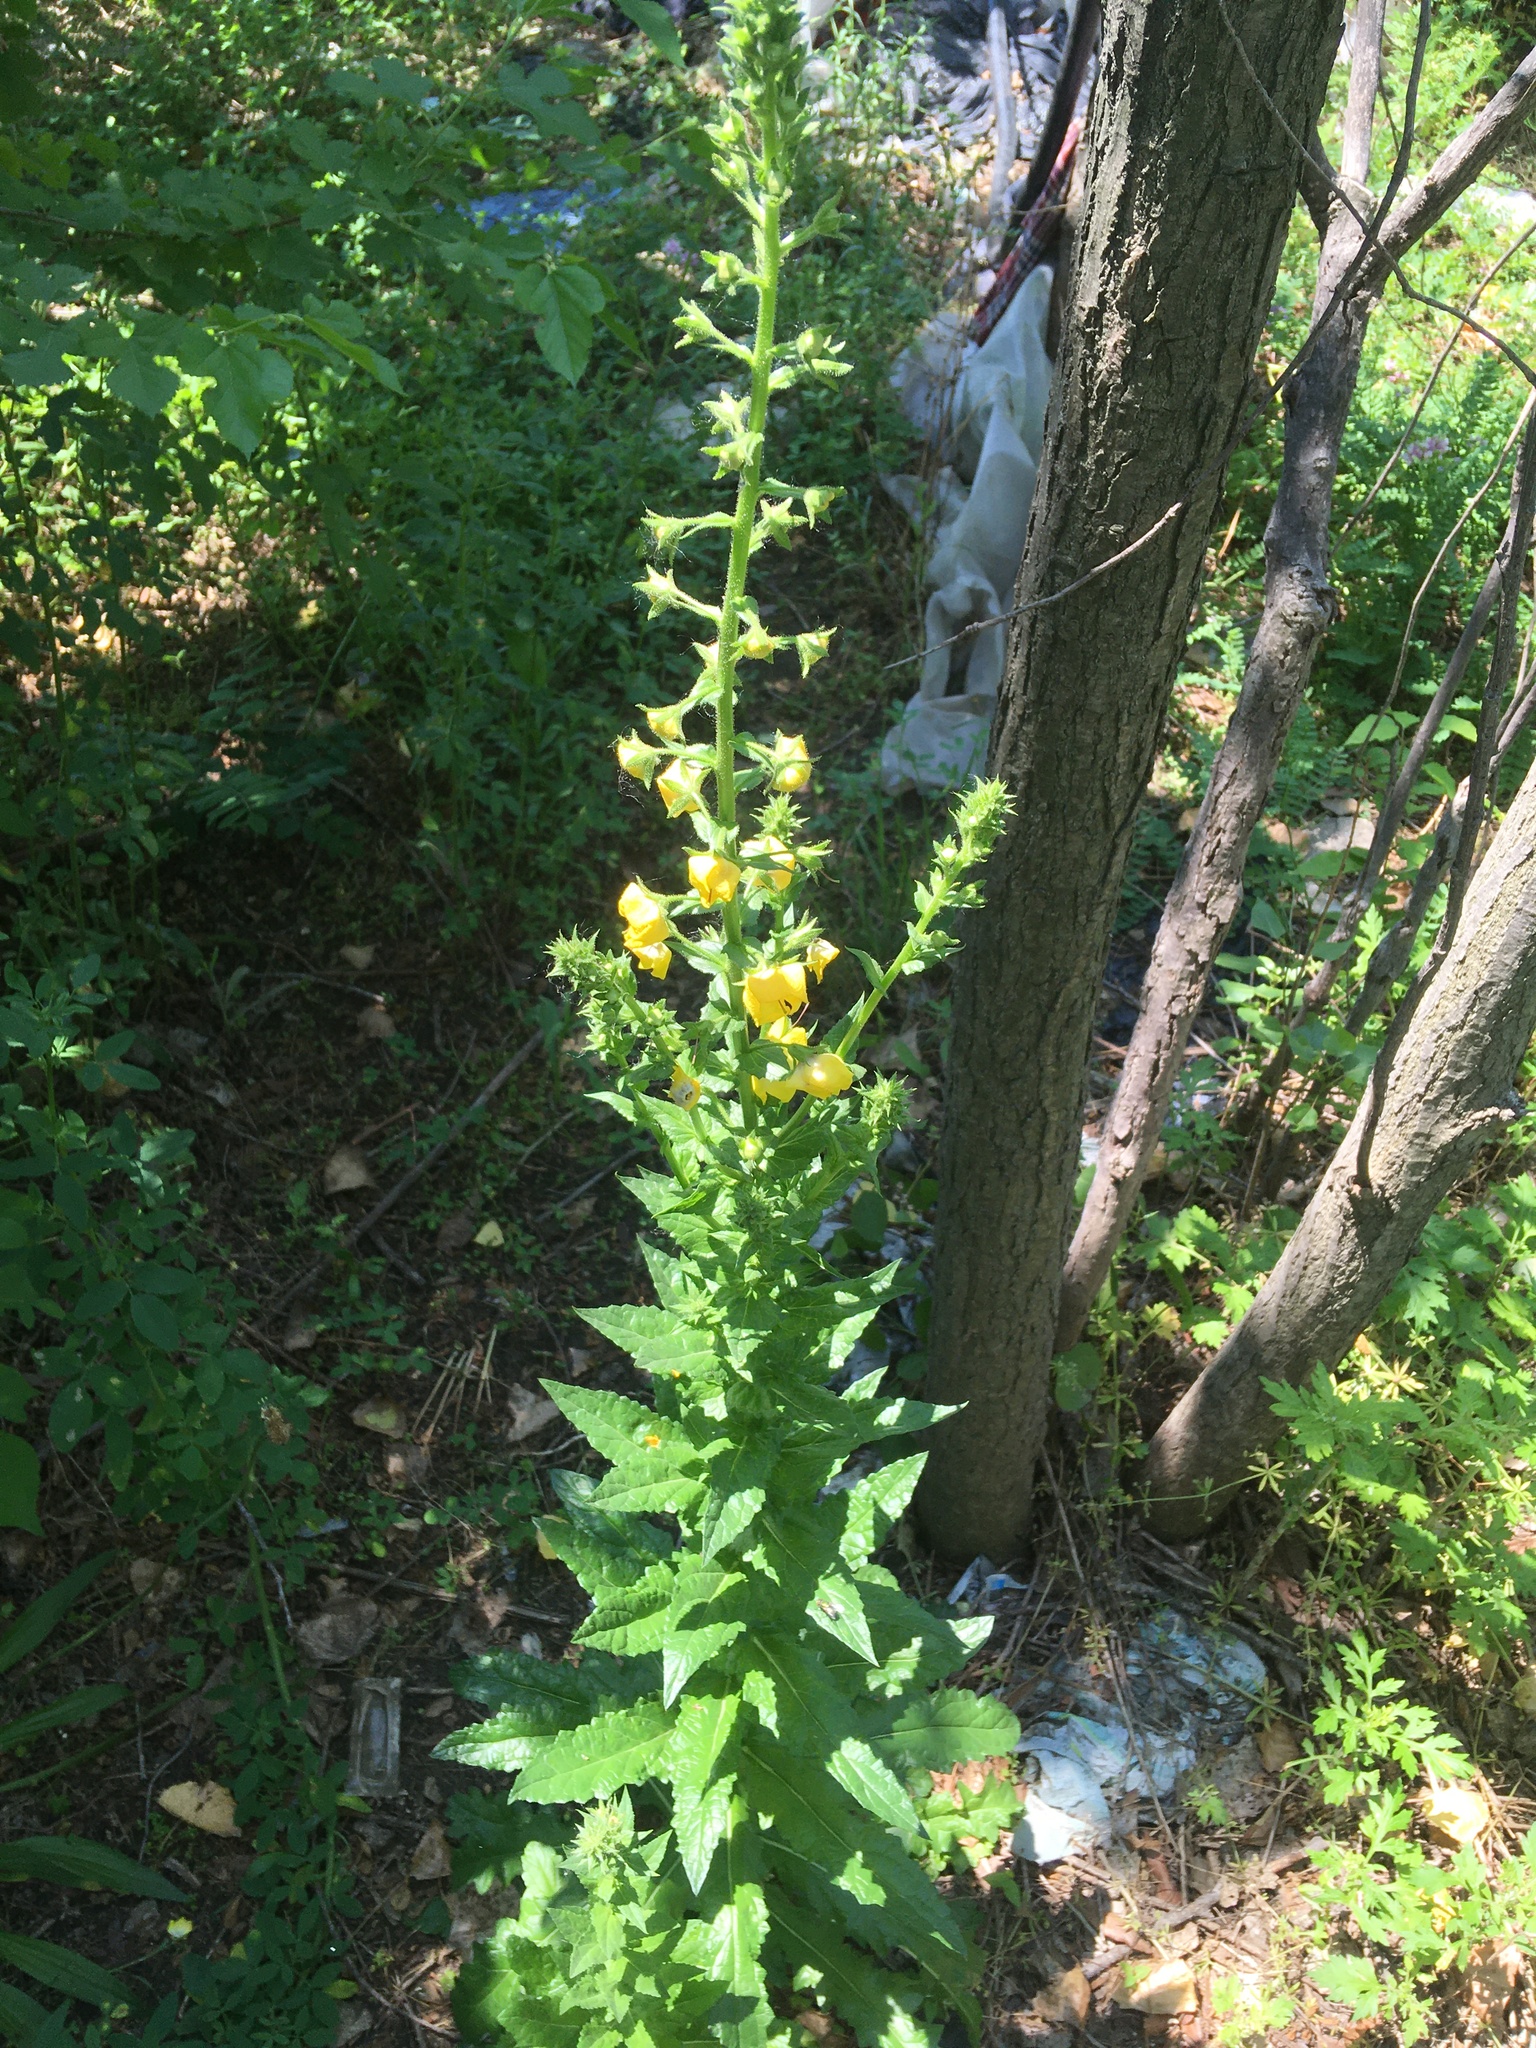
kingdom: Plantae
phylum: Tracheophyta
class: Magnoliopsida
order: Lamiales
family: Scrophulariaceae
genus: Verbascum
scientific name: Verbascum blattaria
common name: Moth mullein
